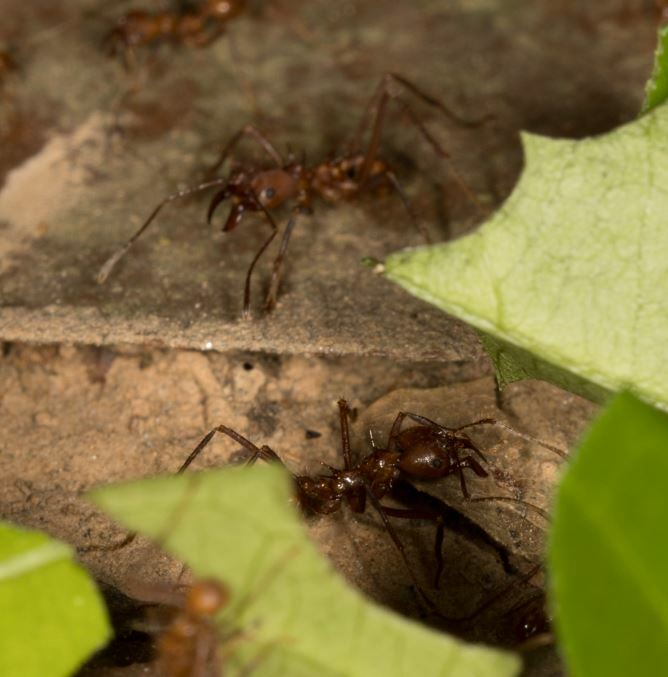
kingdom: Animalia
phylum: Arthropoda
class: Insecta
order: Hymenoptera
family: Formicidae
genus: Atta
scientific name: Atta cephalotes
